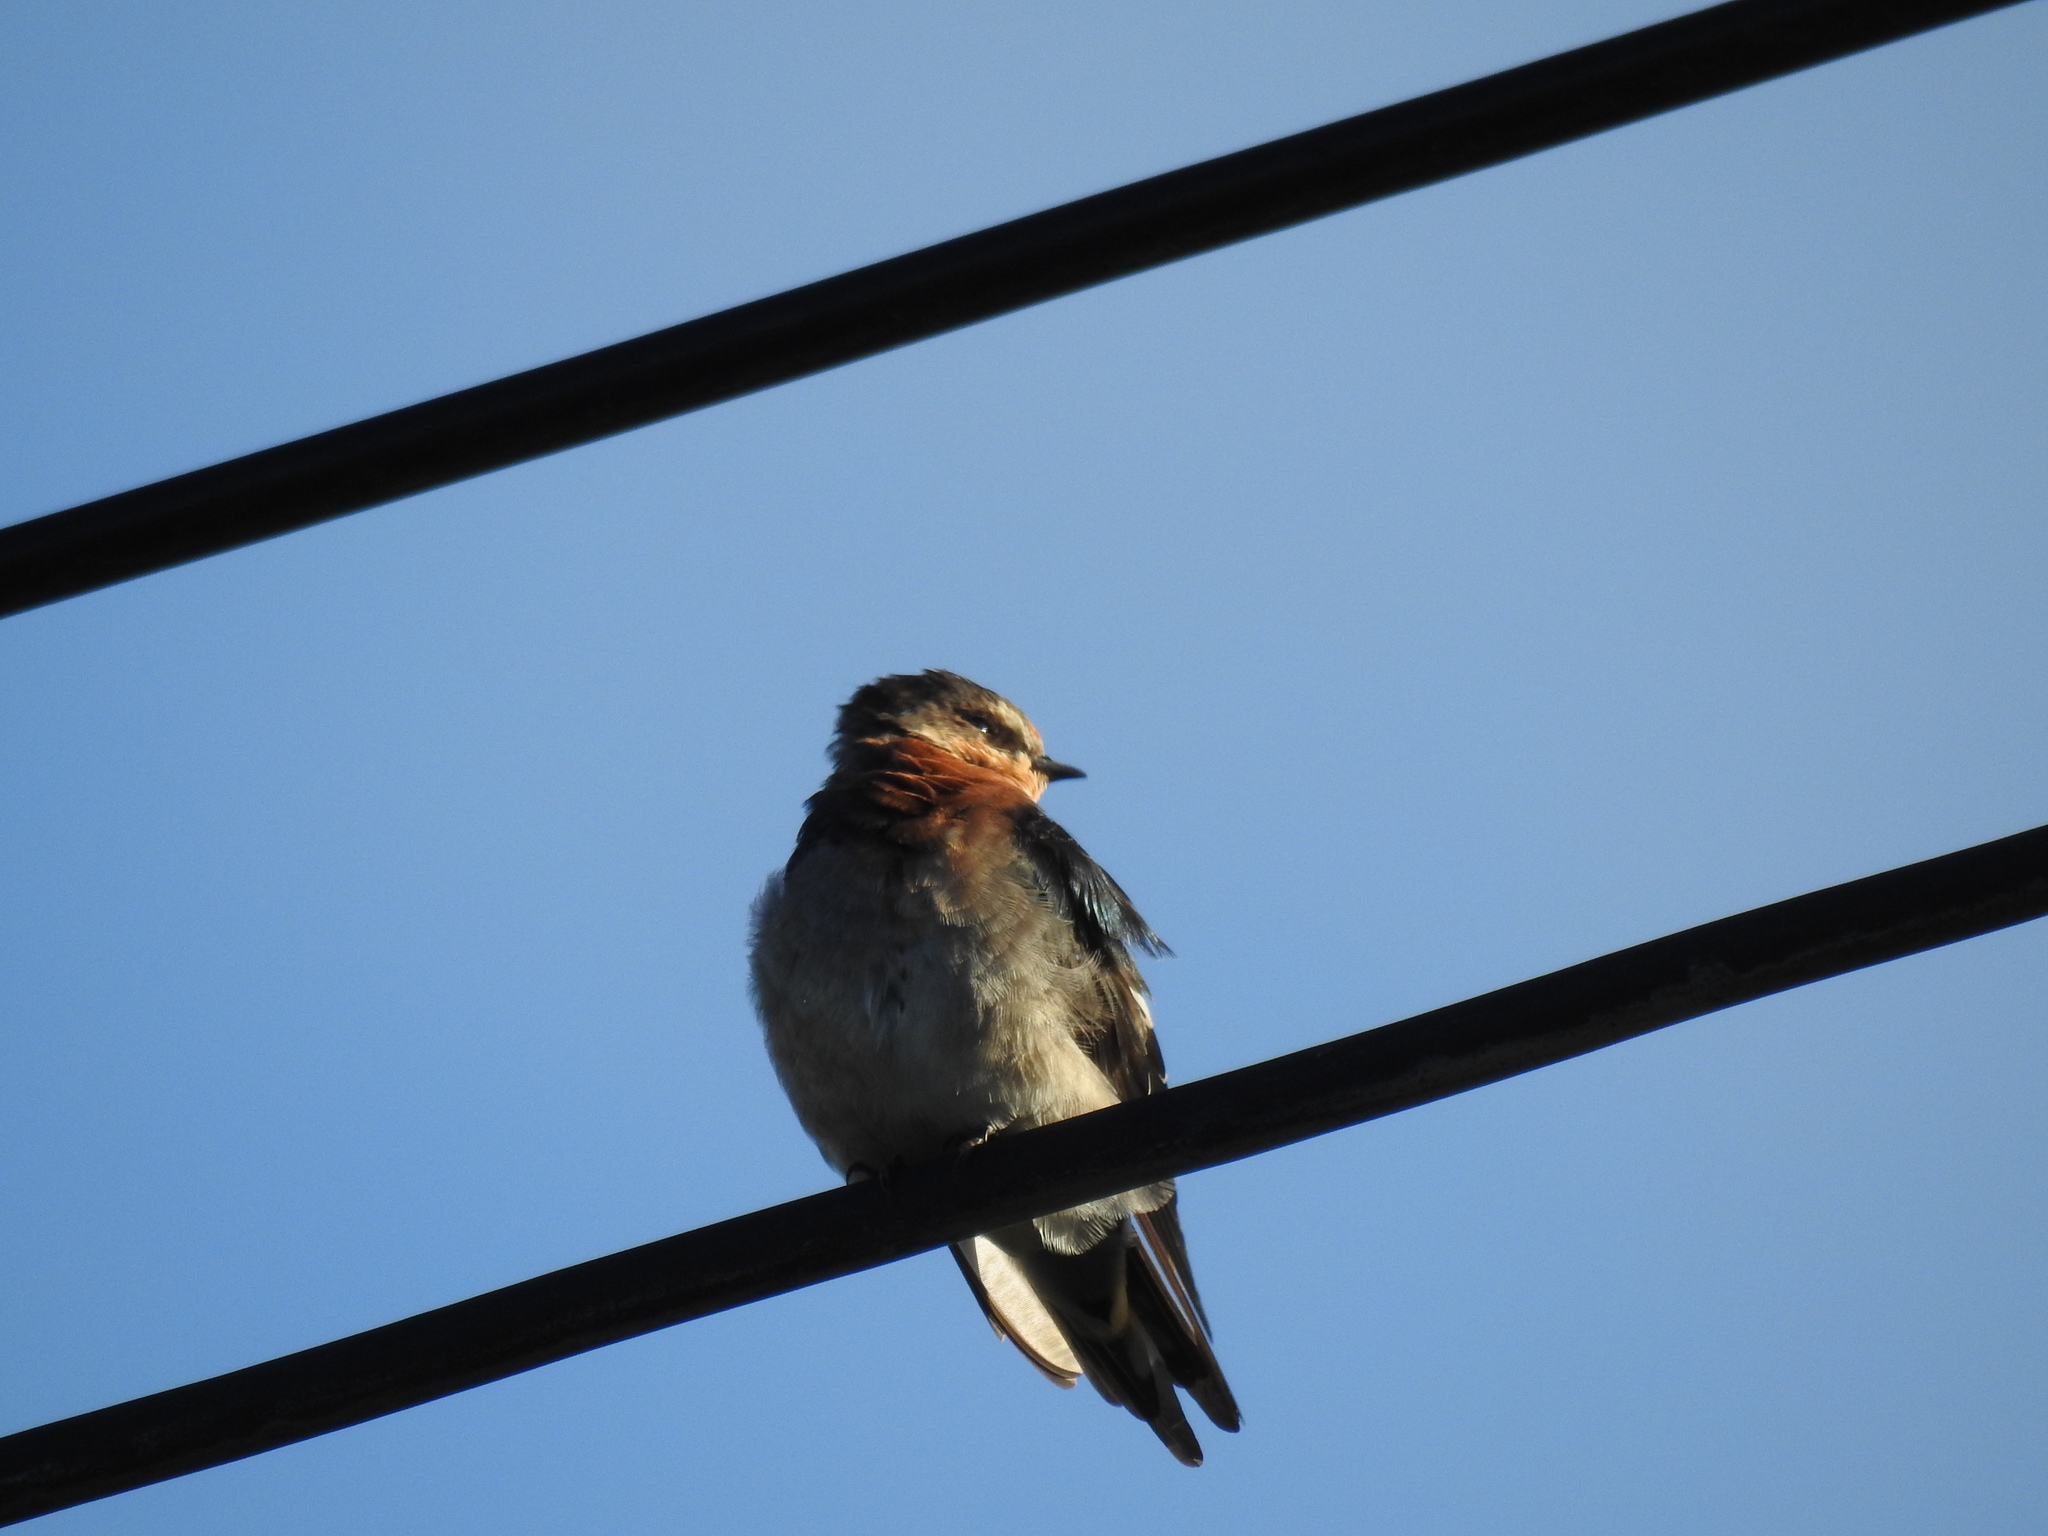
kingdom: Animalia
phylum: Chordata
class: Aves
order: Passeriformes
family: Hirundinidae
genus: Hirundo
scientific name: Hirundo neoxena
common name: Welcome swallow
